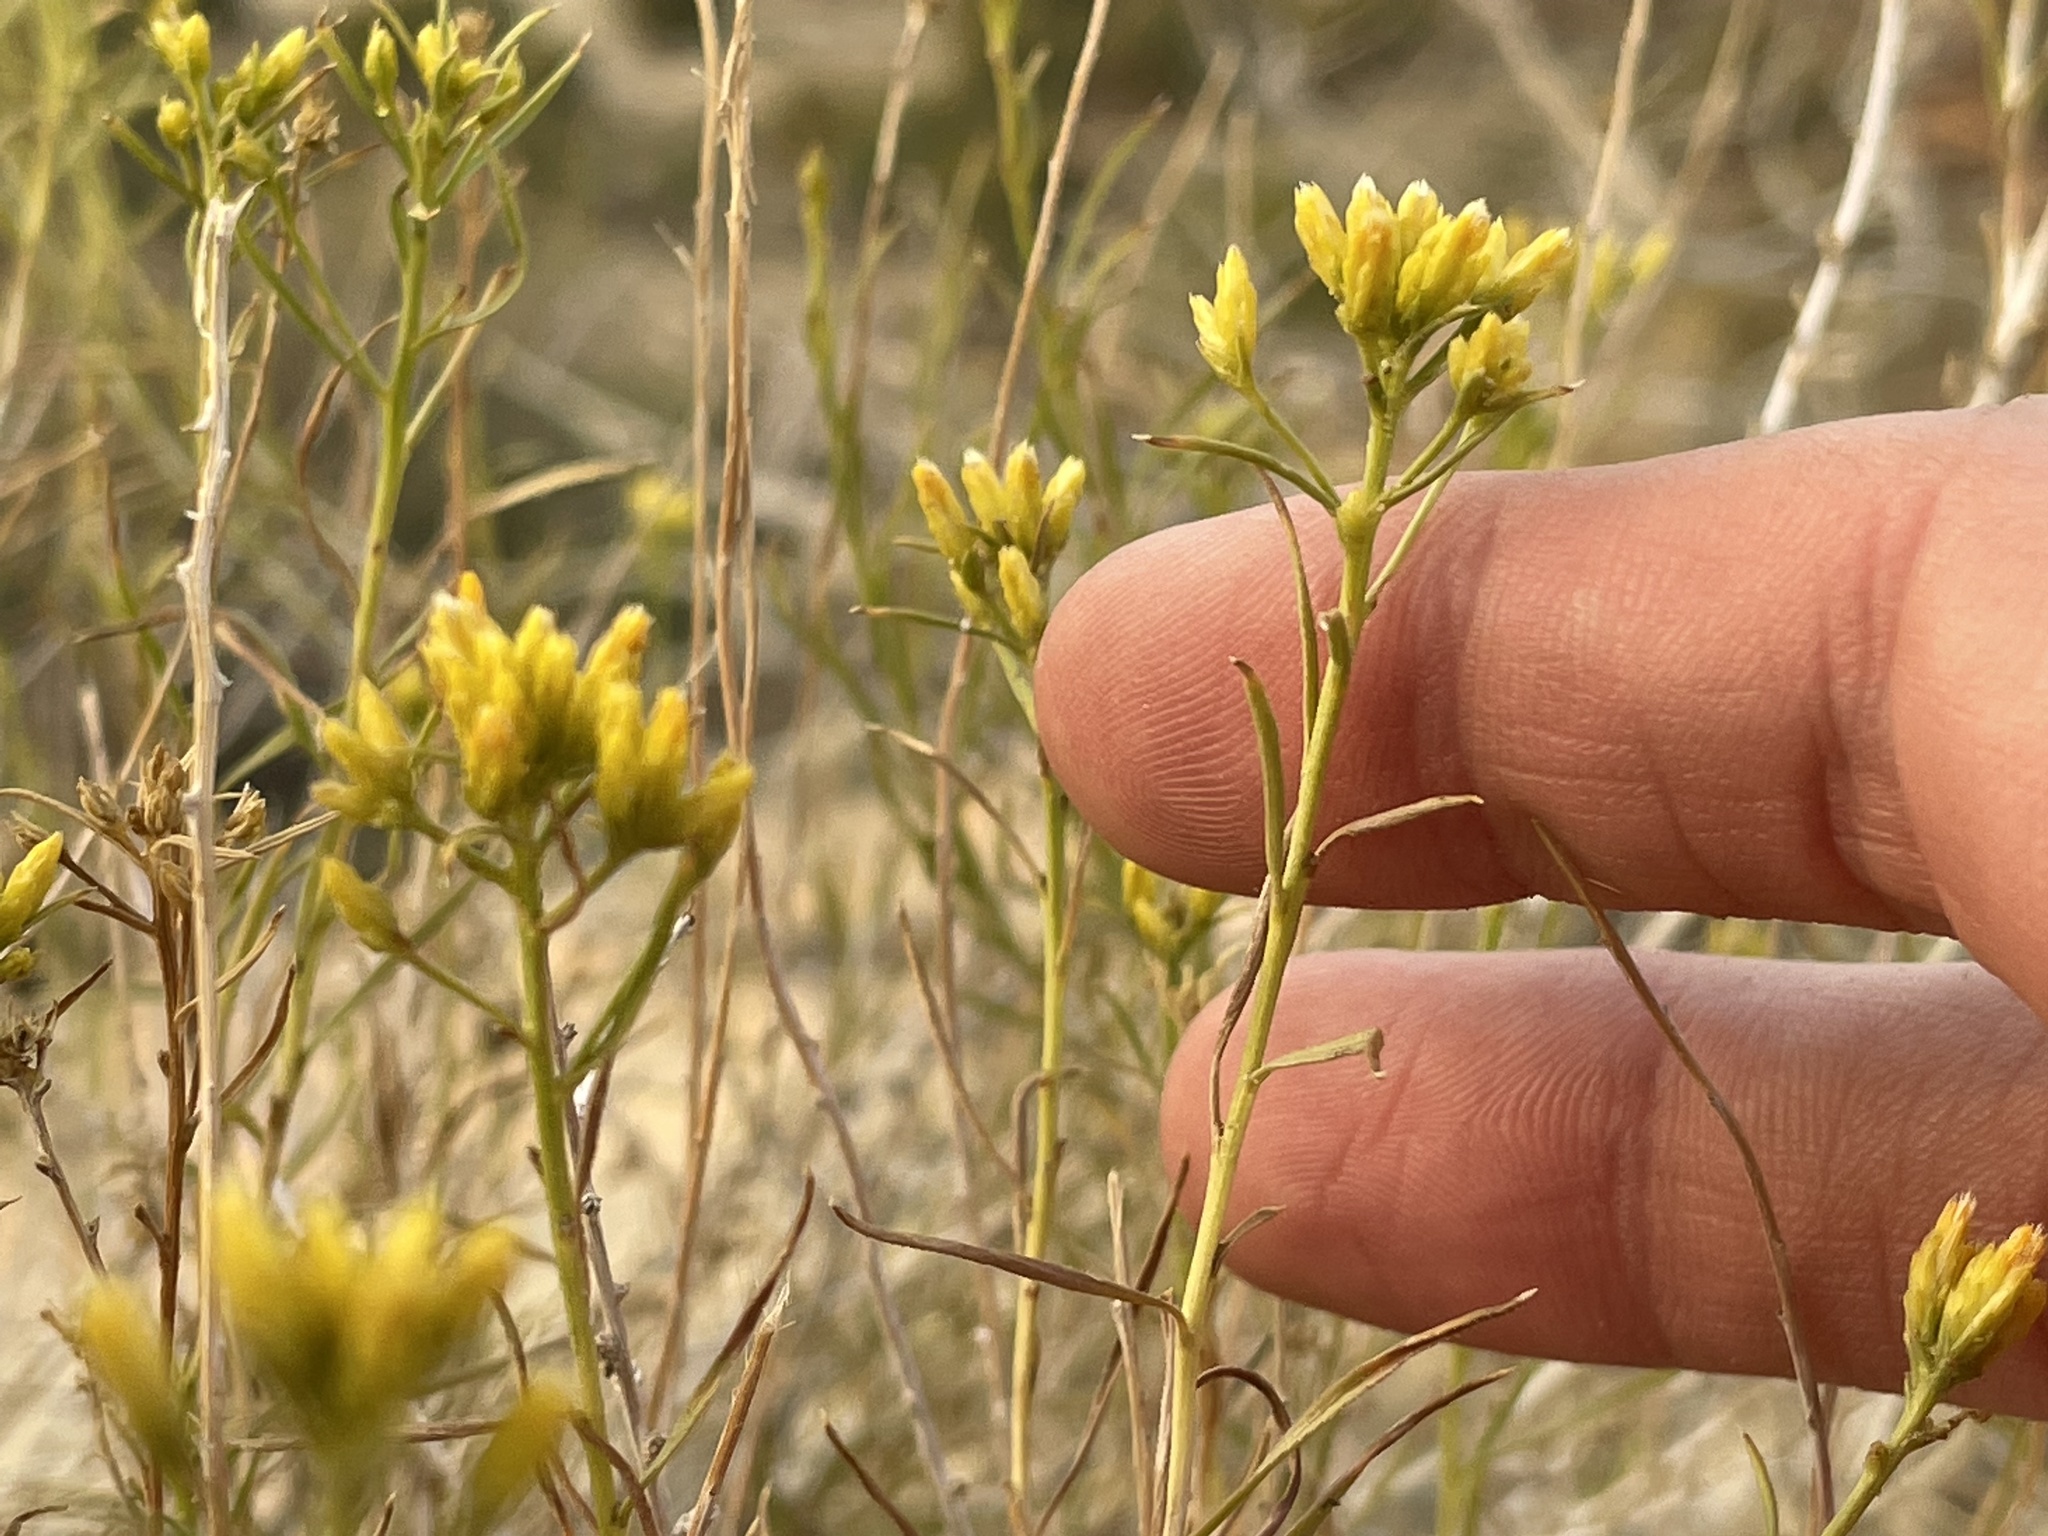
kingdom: Plantae
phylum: Tracheophyta
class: Magnoliopsida
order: Asterales
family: Asteraceae
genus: Chrysothamnus
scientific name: Chrysothamnus greenei
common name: Greene's rabbitbrush
